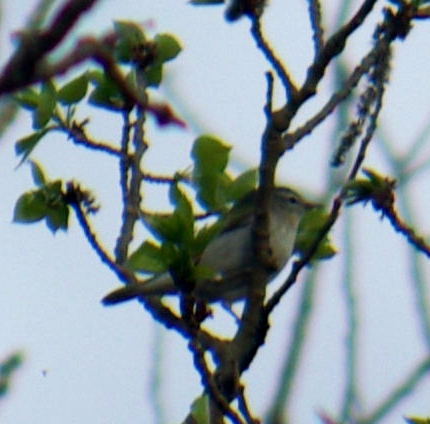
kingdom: Animalia
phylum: Chordata
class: Aves
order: Passeriformes
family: Parulidae
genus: Leiothlypis
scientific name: Leiothlypis peregrina
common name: Tennessee warbler
